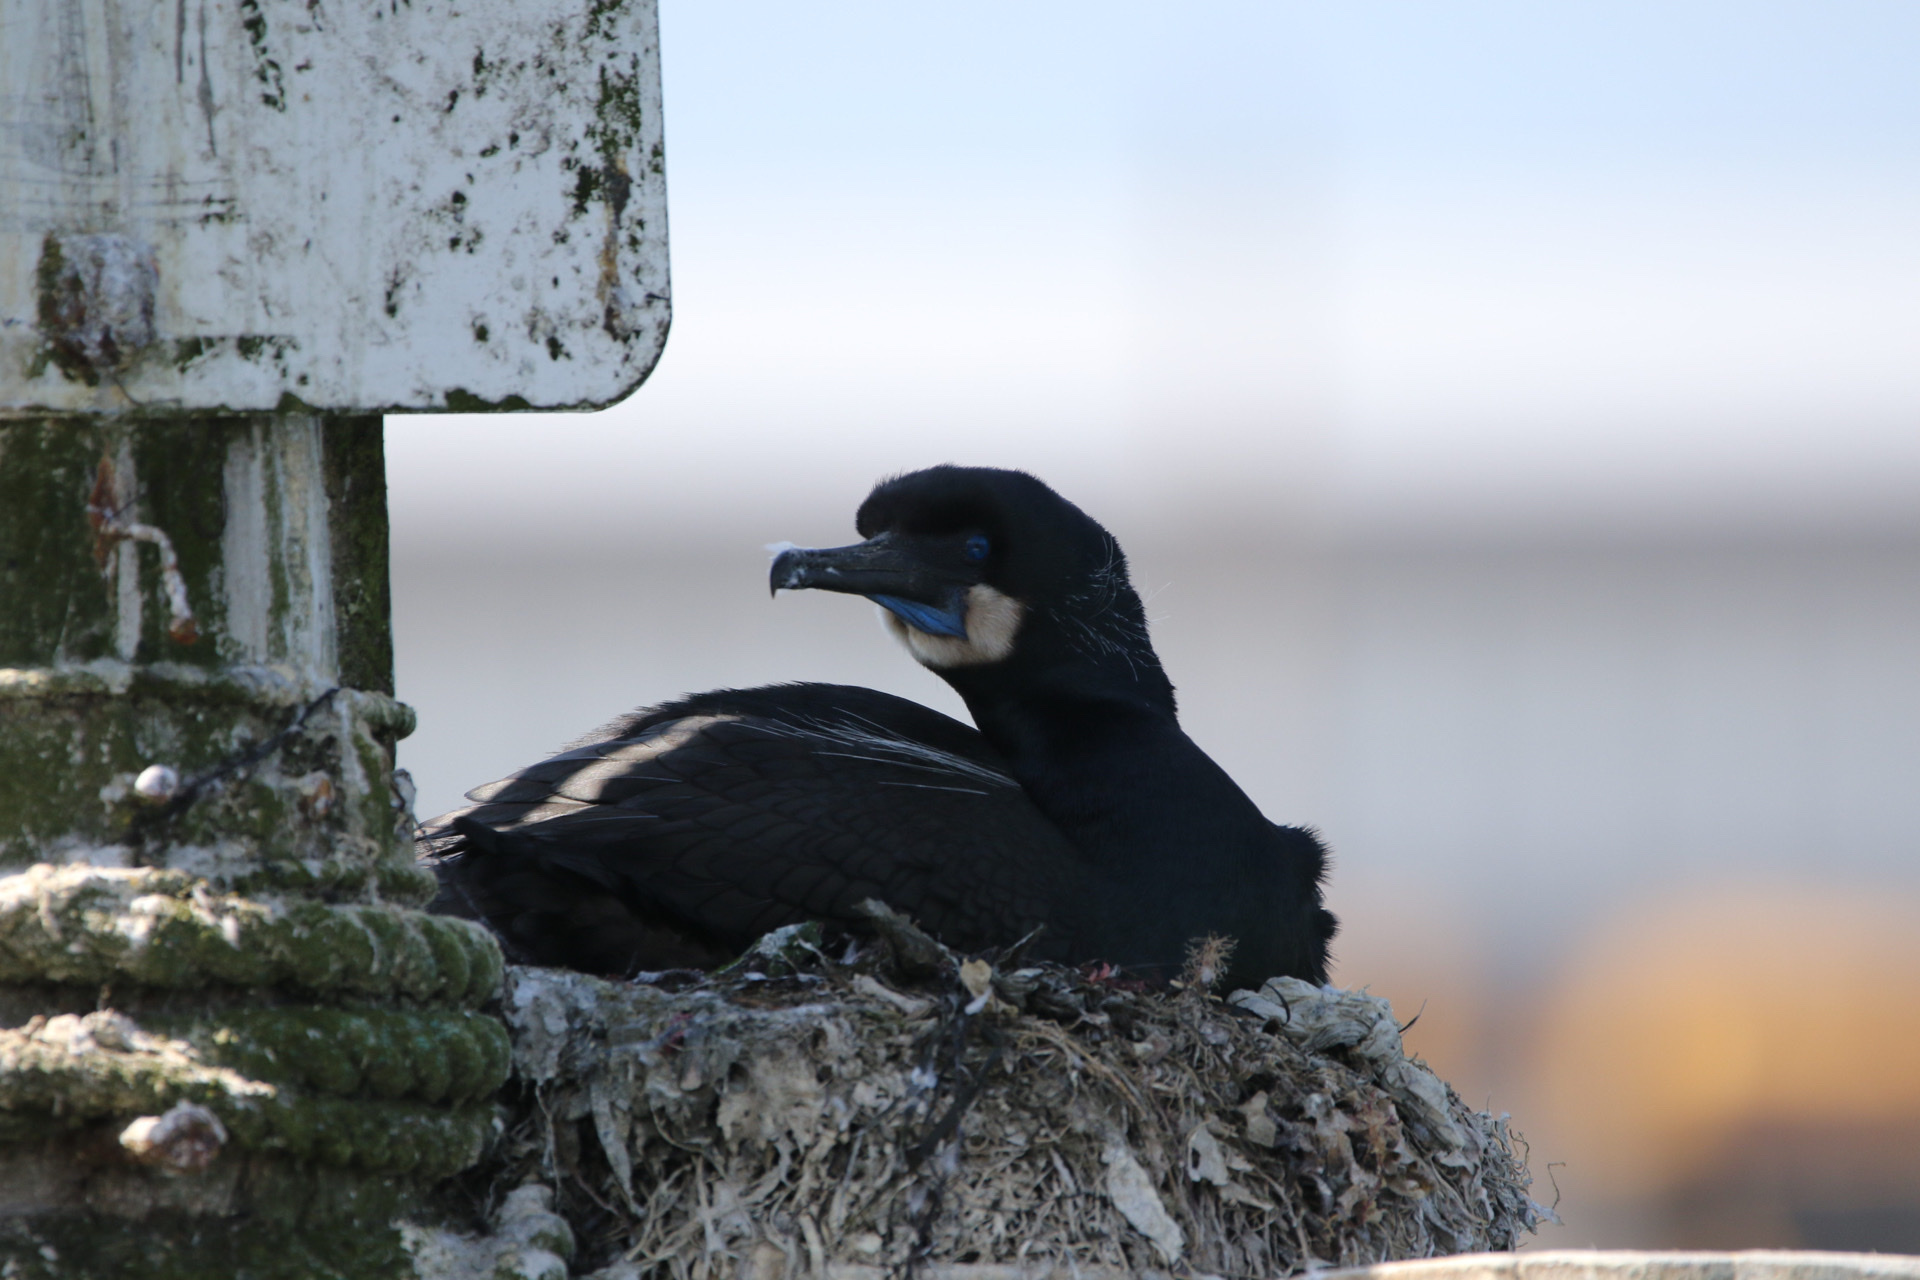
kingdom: Animalia
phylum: Chordata
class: Aves
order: Suliformes
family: Phalacrocoracidae
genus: Urile
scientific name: Urile penicillatus
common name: Brandt's cormorant
